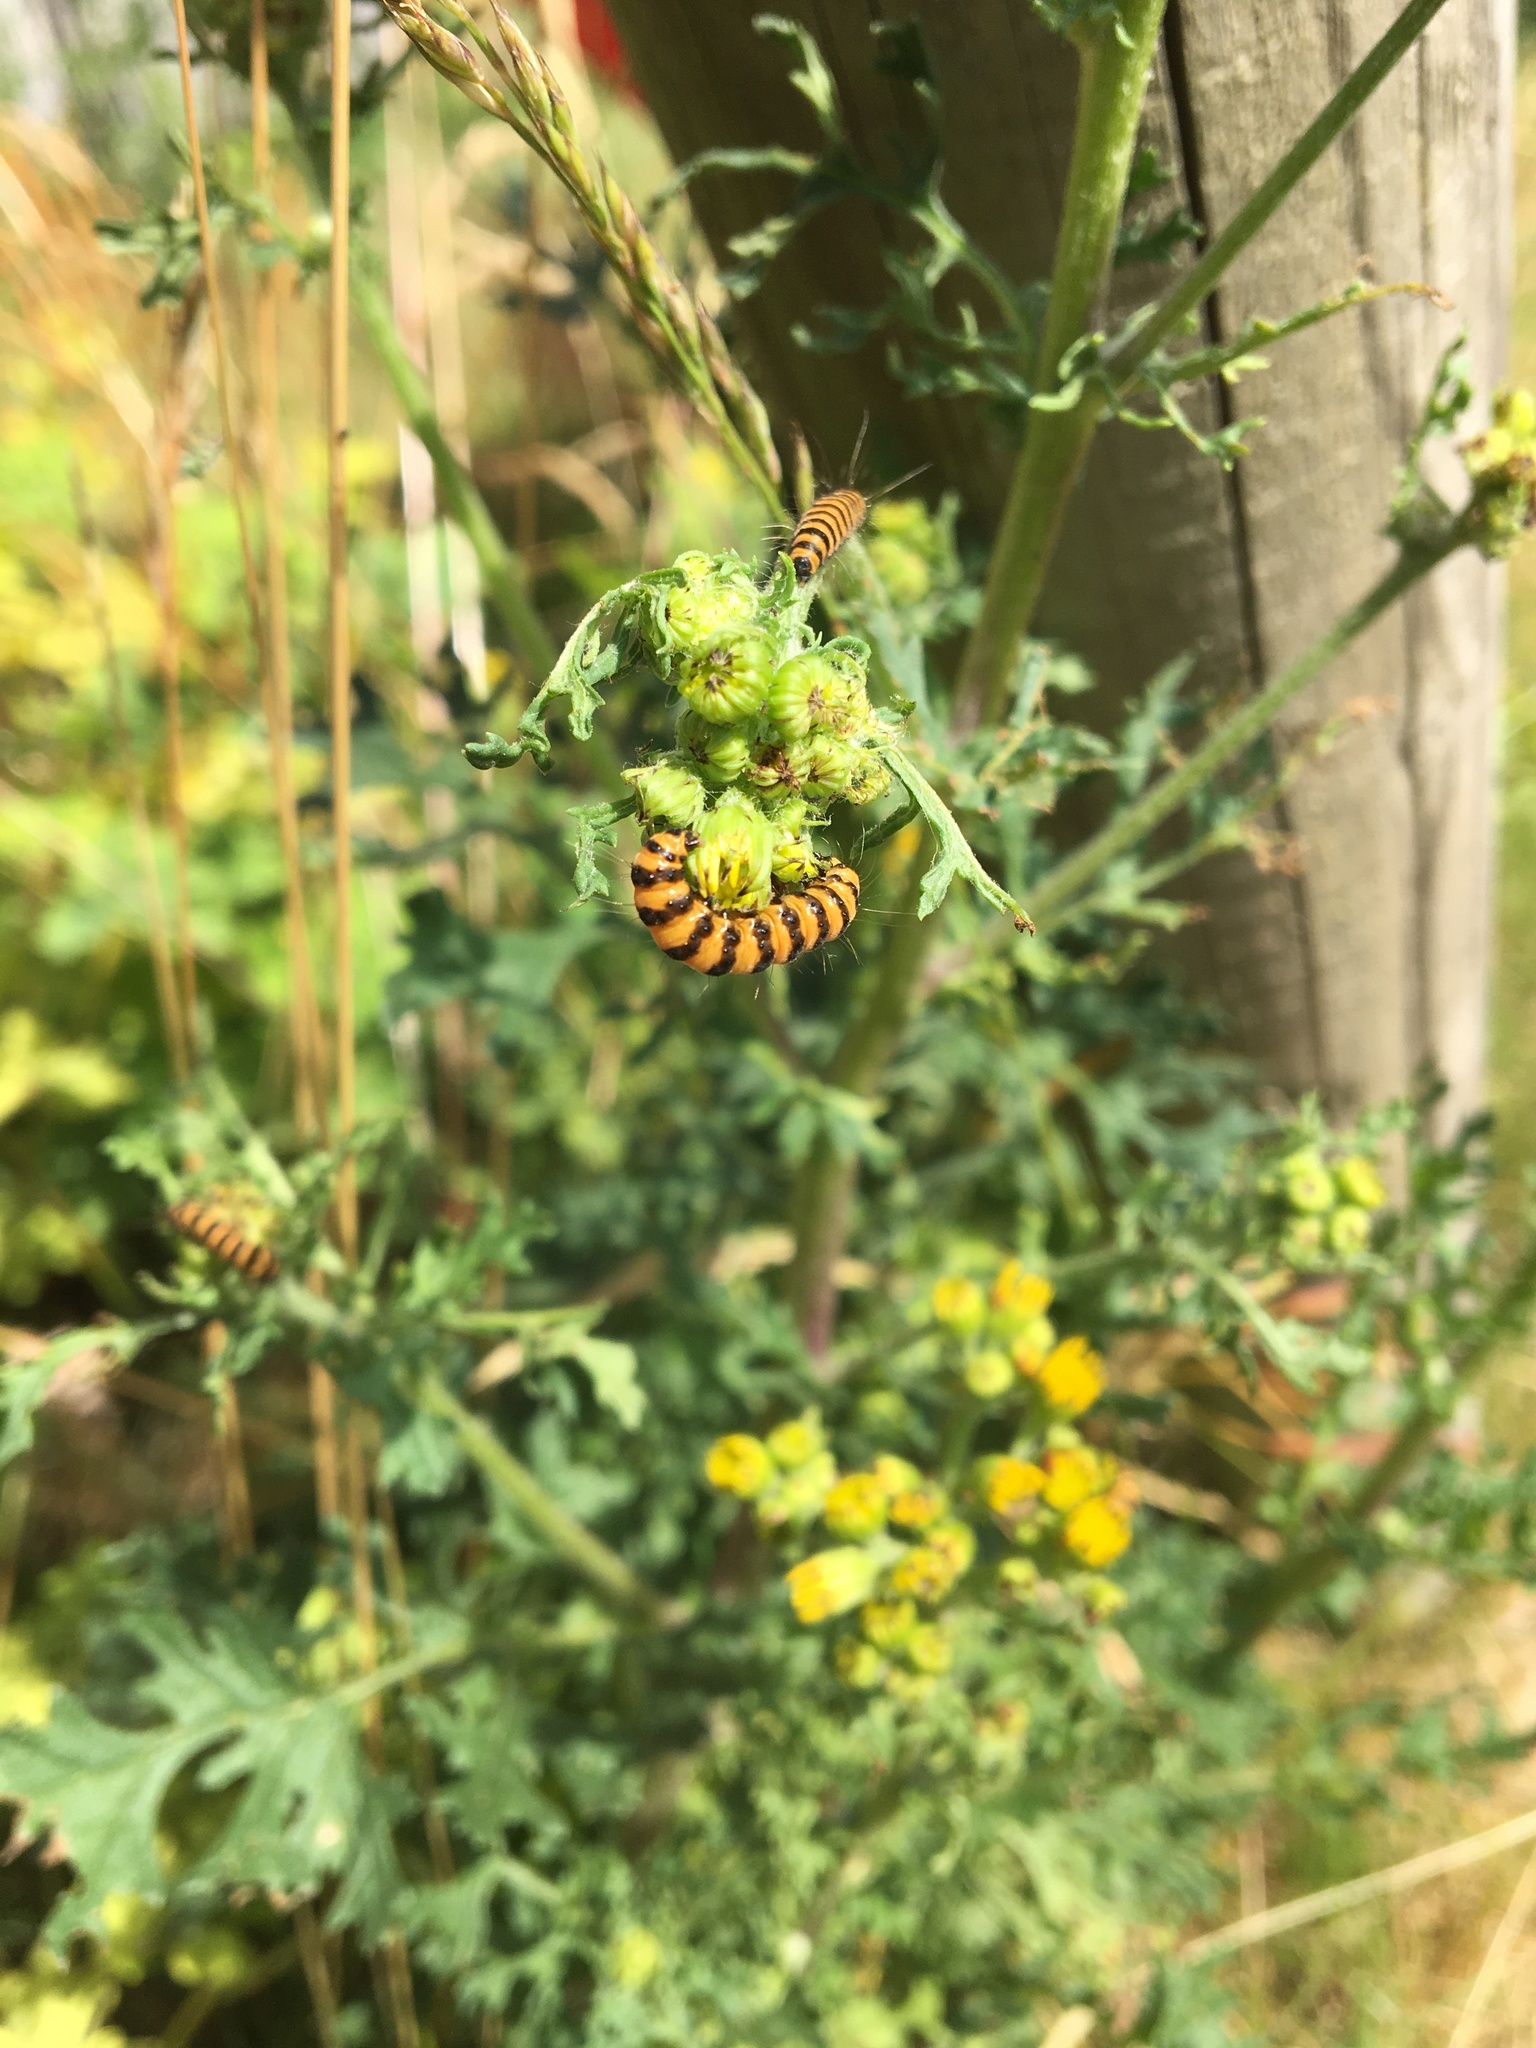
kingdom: Animalia
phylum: Arthropoda
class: Insecta
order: Lepidoptera
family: Erebidae
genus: Tyria
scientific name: Tyria jacobaeae
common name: Cinnabar
